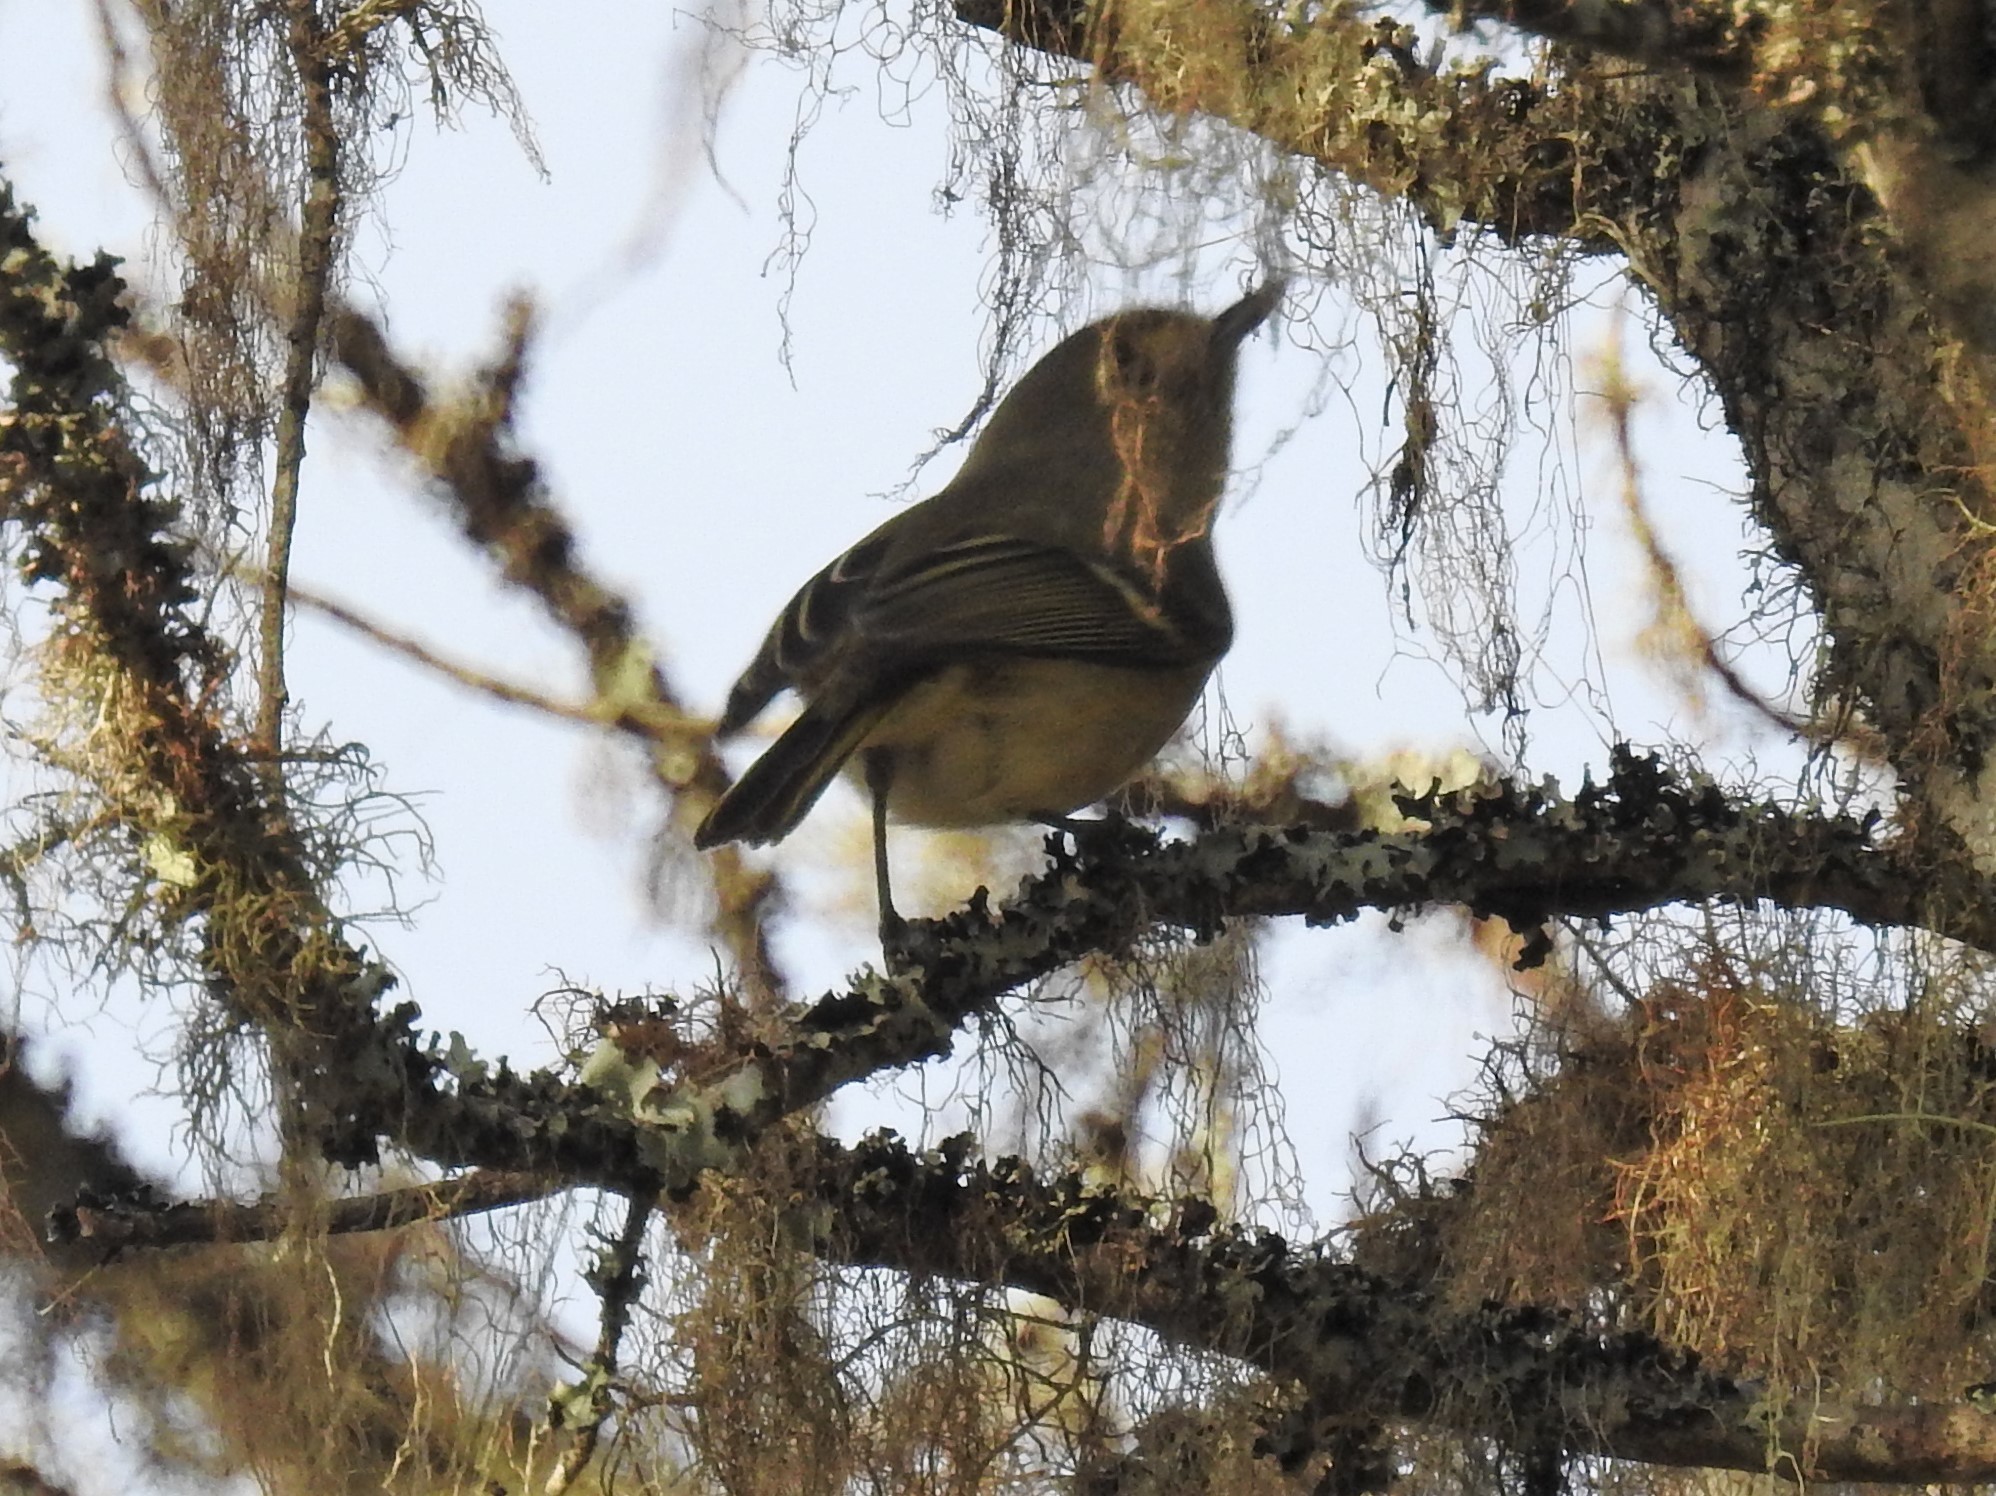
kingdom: Animalia
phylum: Chordata
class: Aves
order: Passeriformes
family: Vireonidae
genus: Vireo
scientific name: Vireo huttoni
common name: Hutton's vireo
